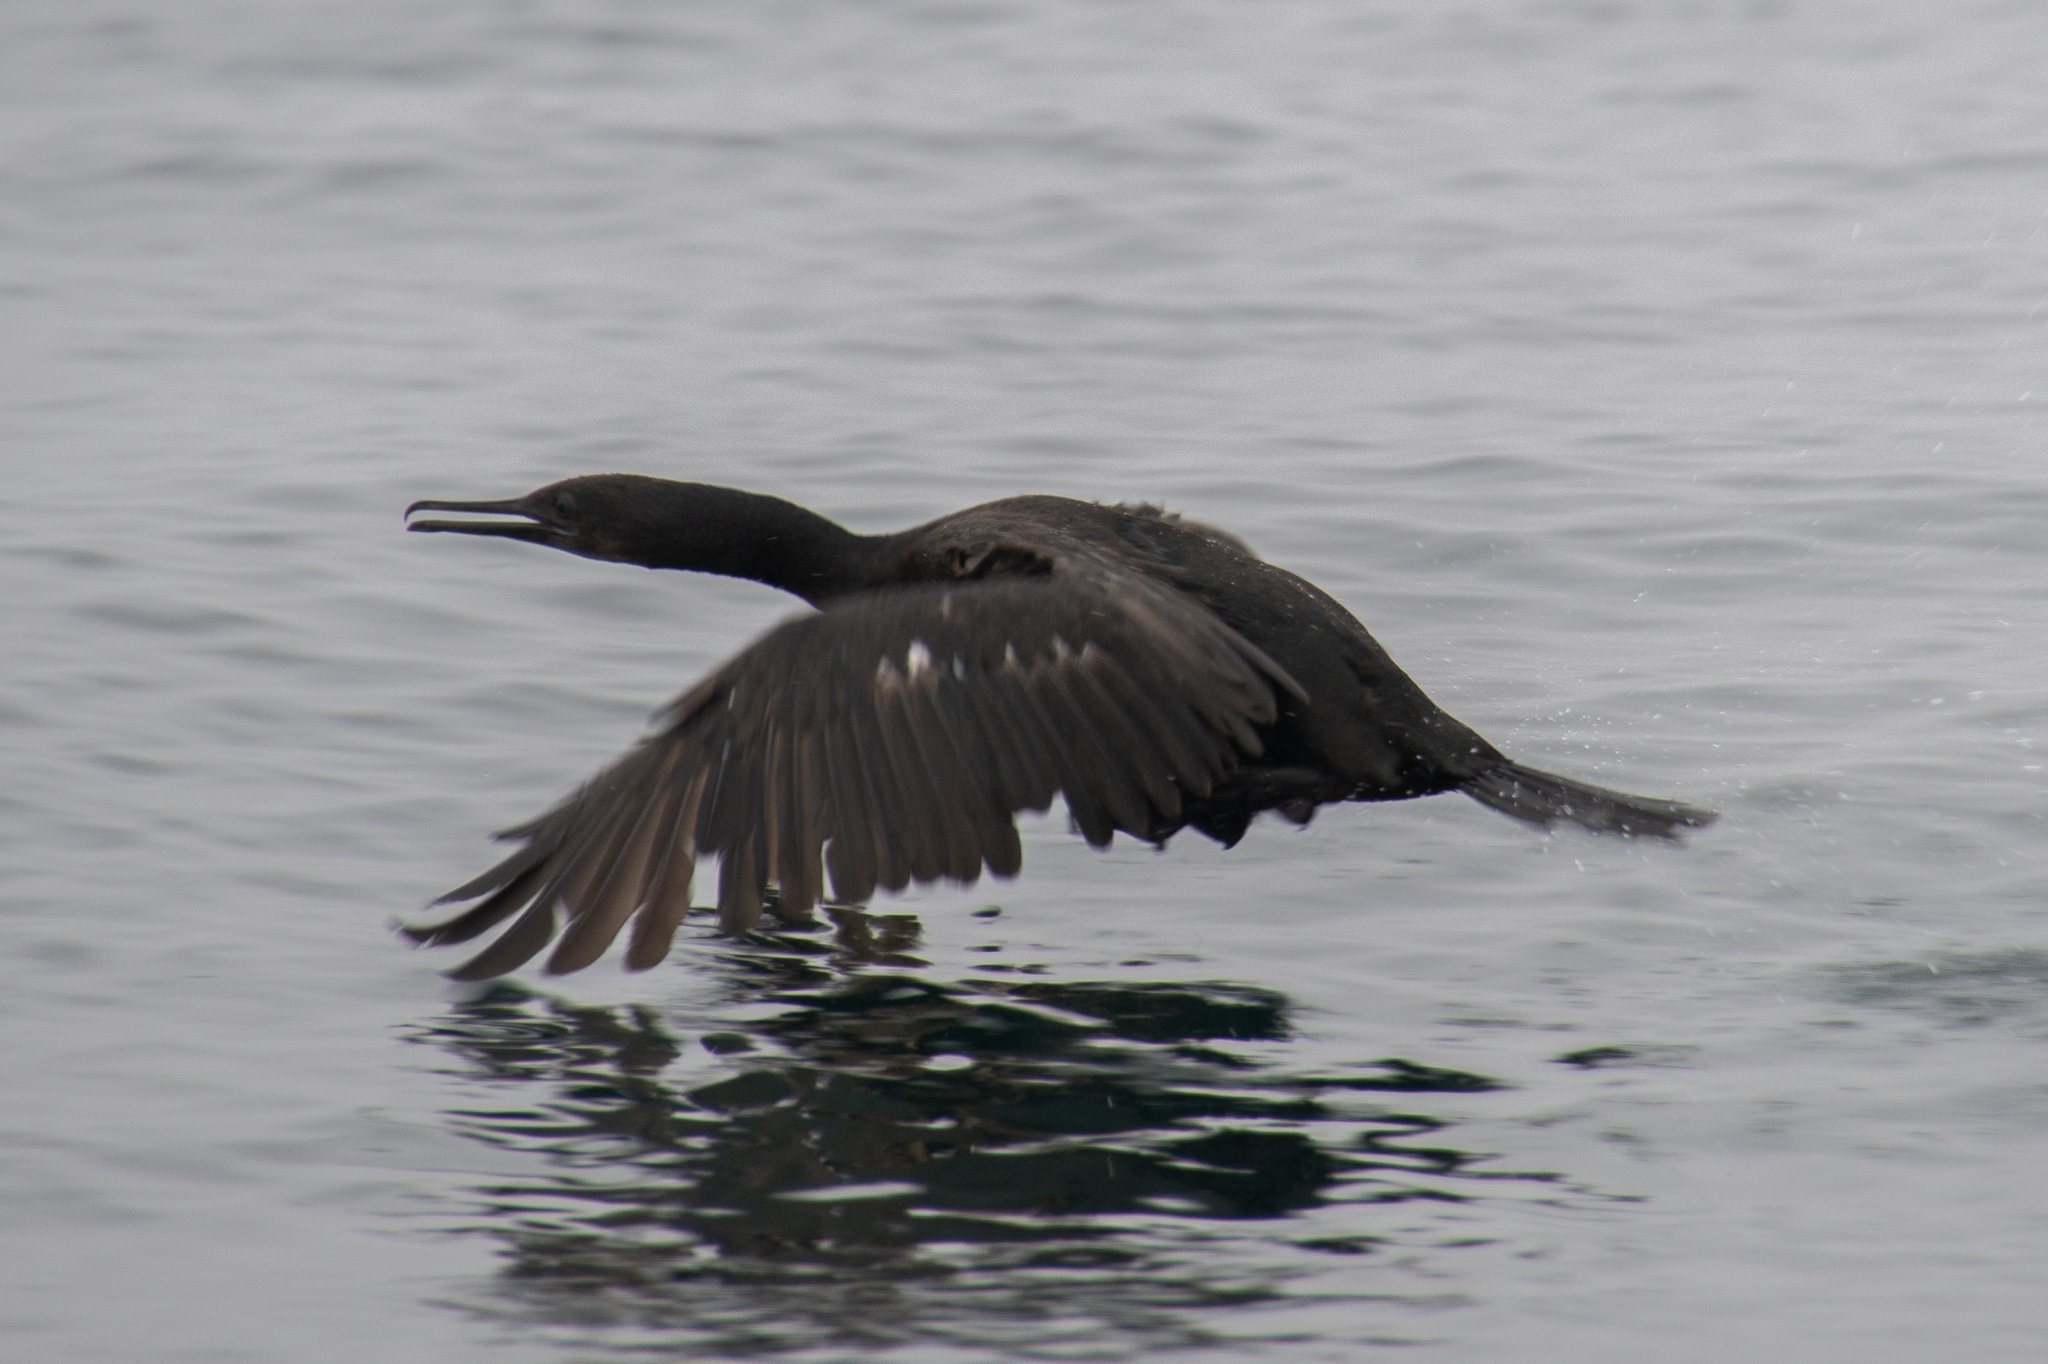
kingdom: Animalia
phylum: Chordata
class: Aves
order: Suliformes
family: Phalacrocoracidae
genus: Phalacrocorax
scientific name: Phalacrocorax pelagicus
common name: Pelagic cormorant
